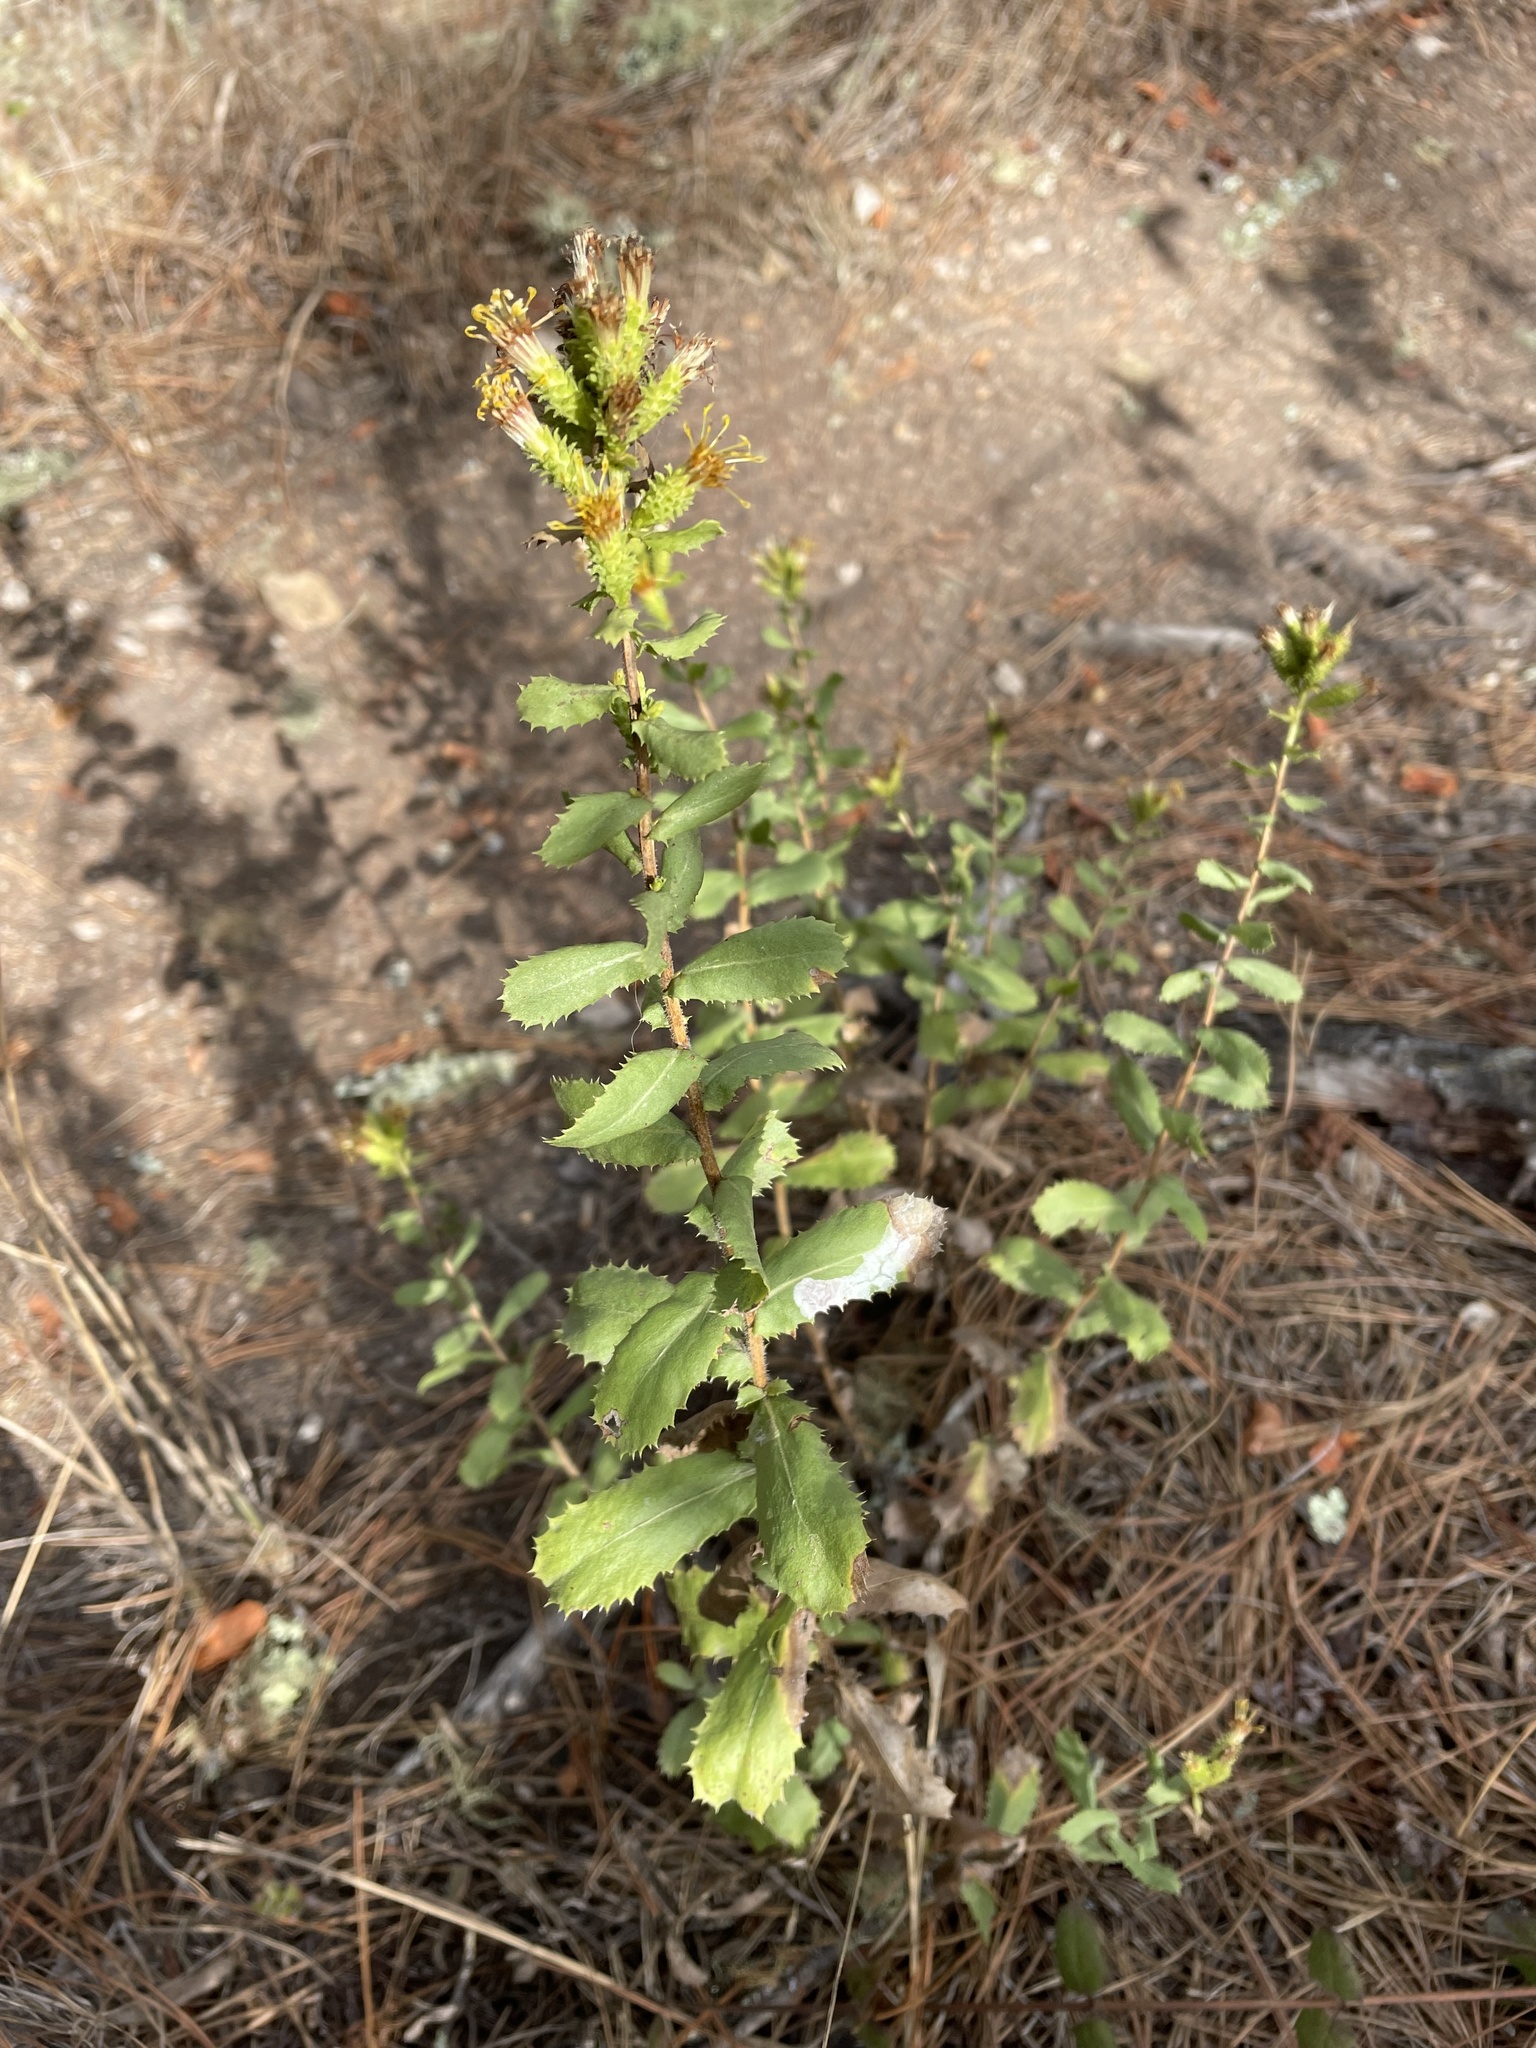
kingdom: Plantae
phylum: Tracheophyta
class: Magnoliopsida
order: Asterales
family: Asteraceae
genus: Hazardia
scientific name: Hazardia squarrosa
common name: Saw-tooth goldenbush
